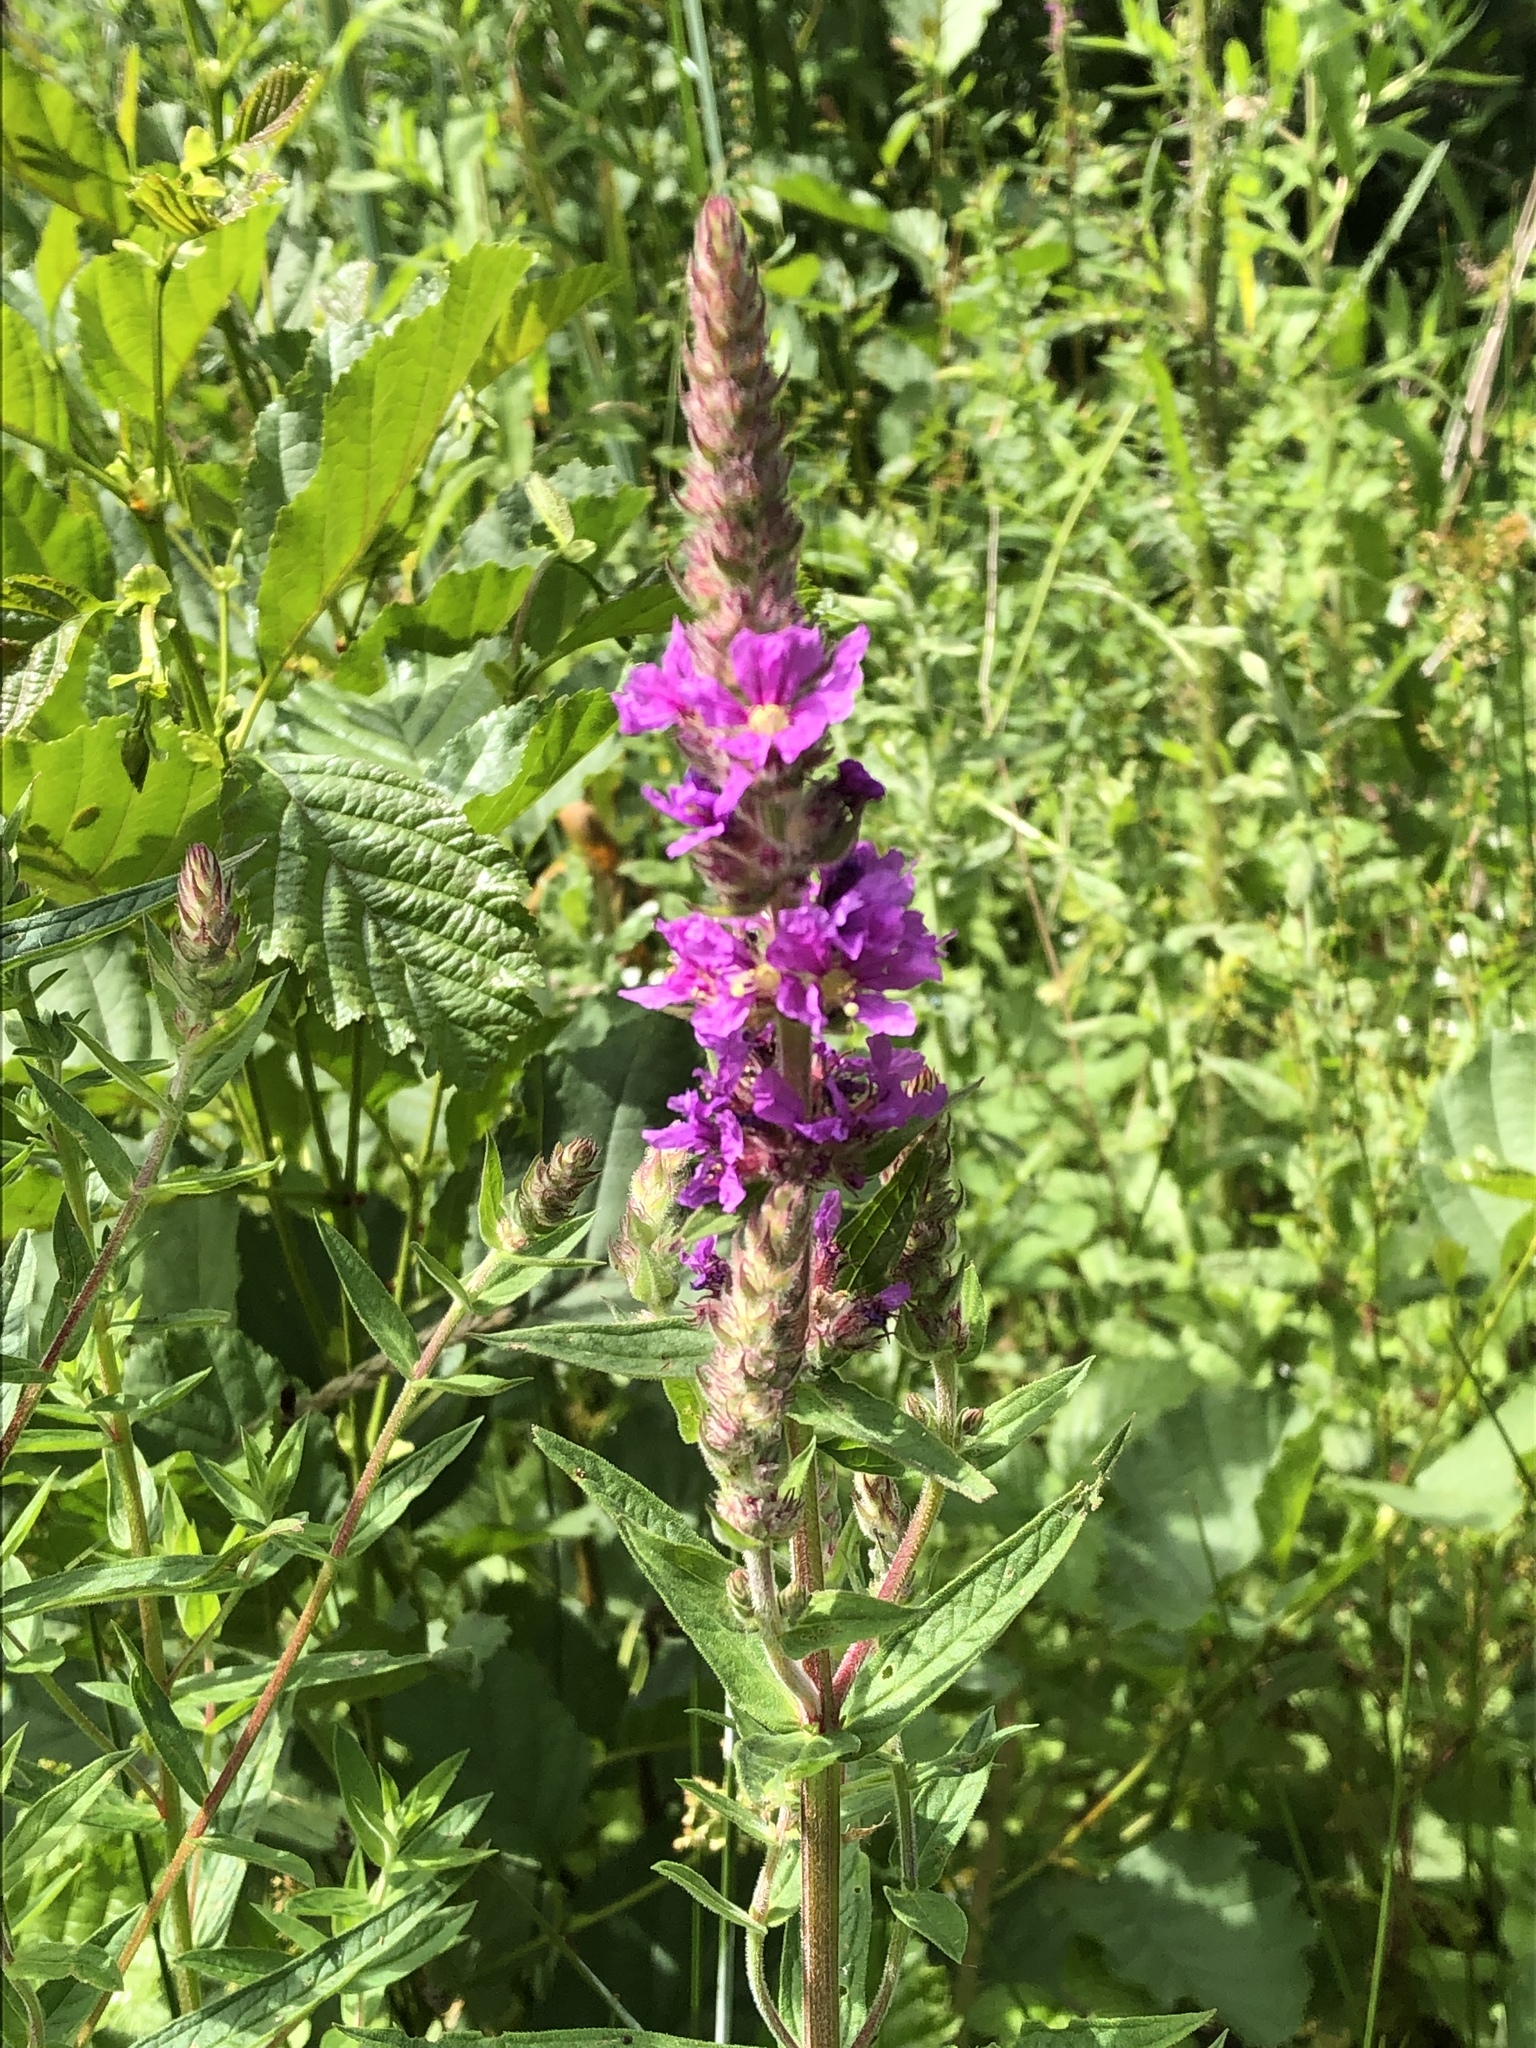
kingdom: Plantae
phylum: Tracheophyta
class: Magnoliopsida
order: Myrtales
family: Lythraceae
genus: Lythrum
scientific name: Lythrum salicaria
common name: Purple loosestrife
